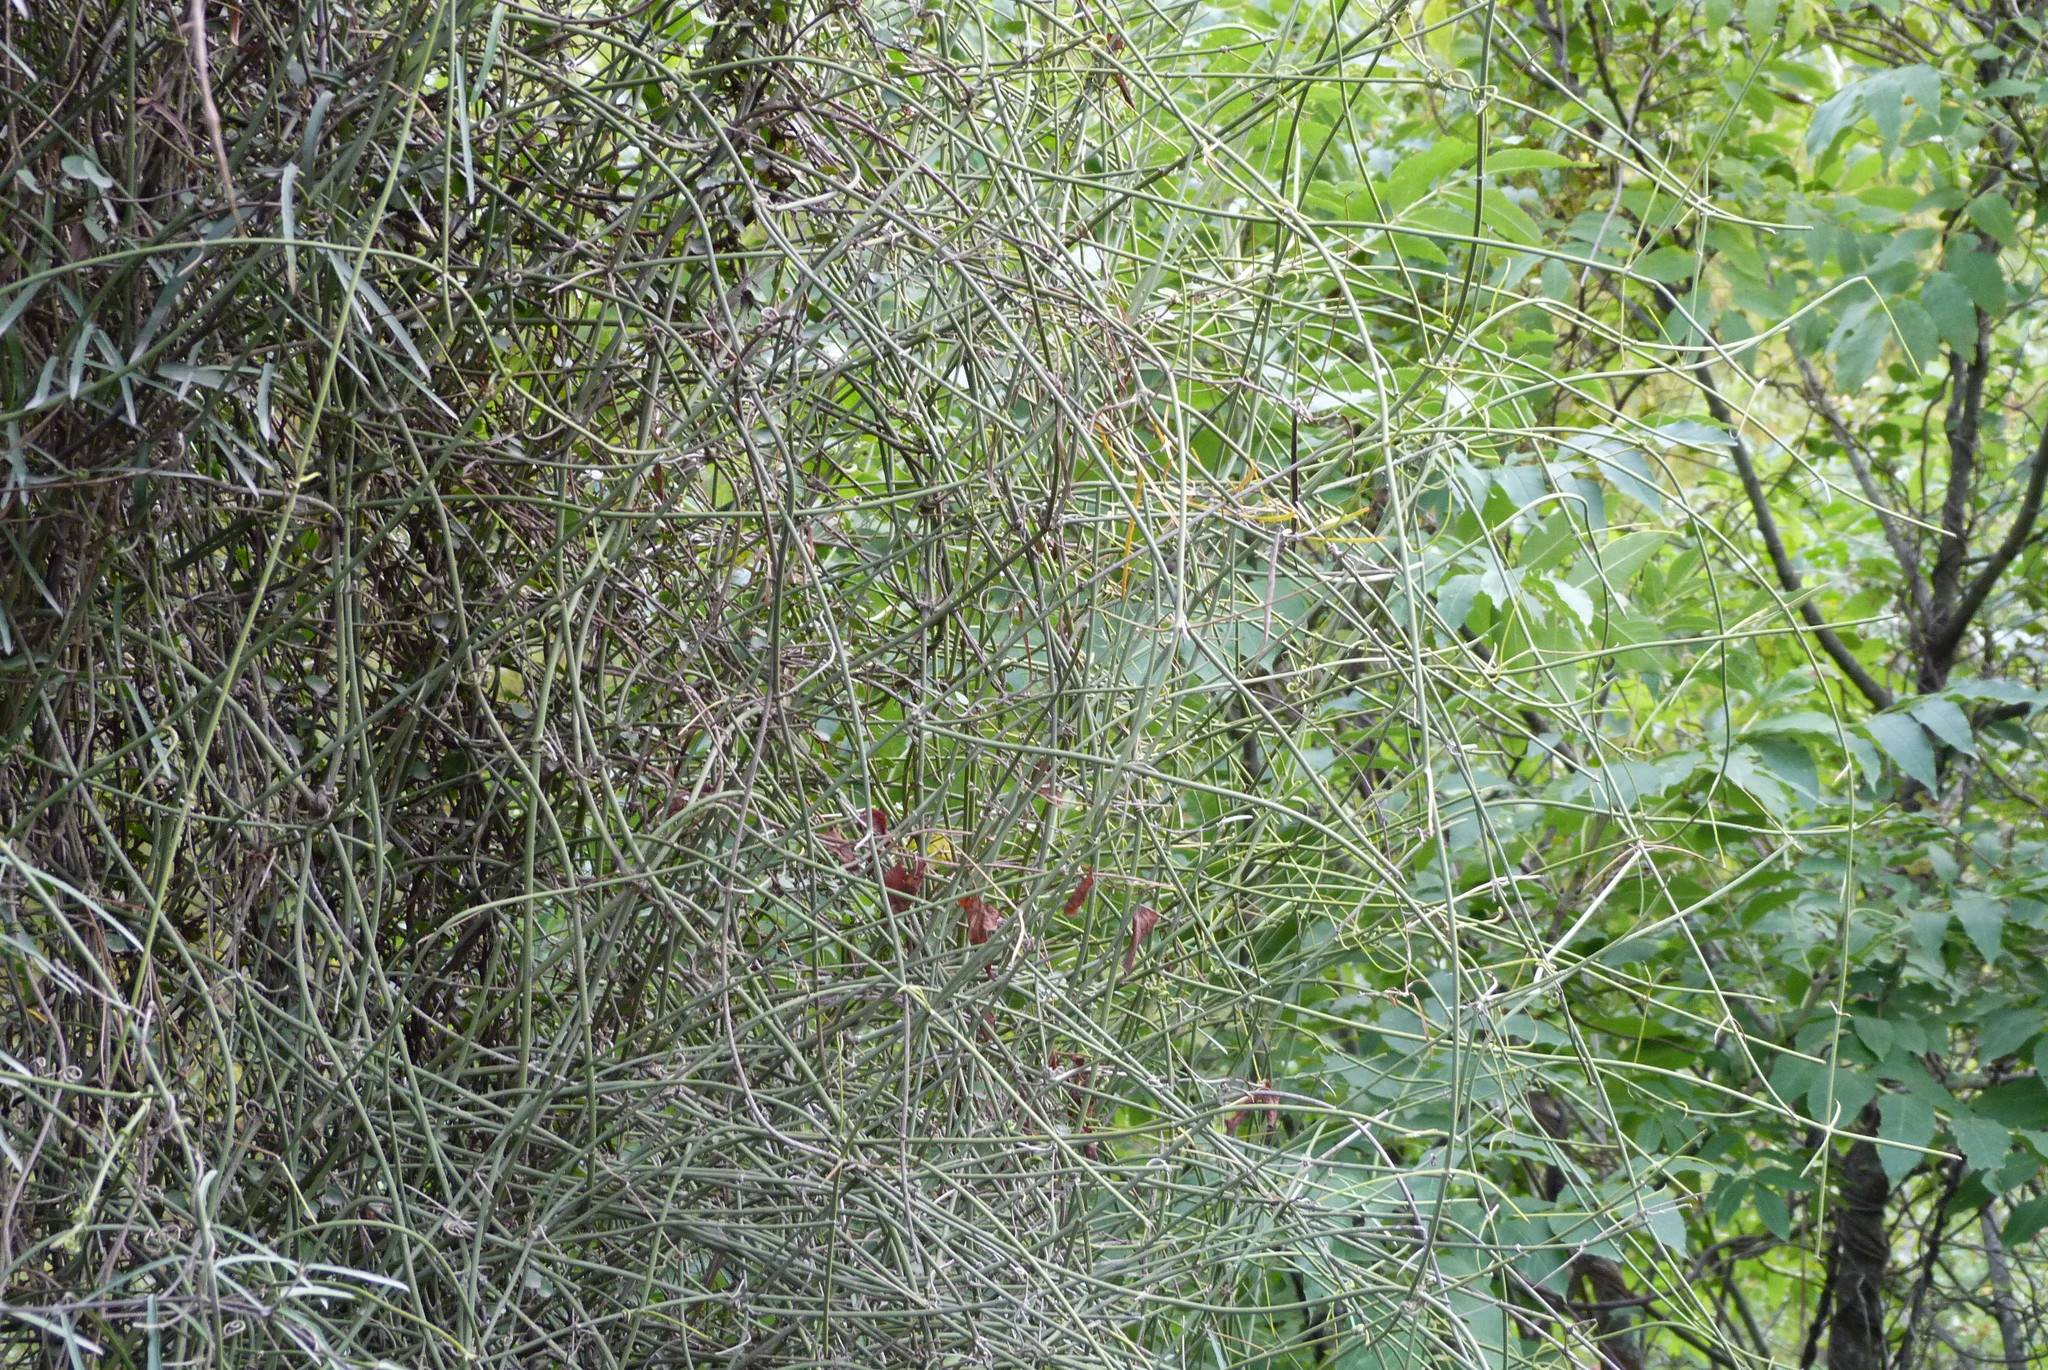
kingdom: Plantae
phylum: Tracheophyta
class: Magnoliopsida
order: Ranunculales
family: Ranunculaceae
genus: Clematis
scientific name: Clematis afoliata
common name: Rush-stem clematis
